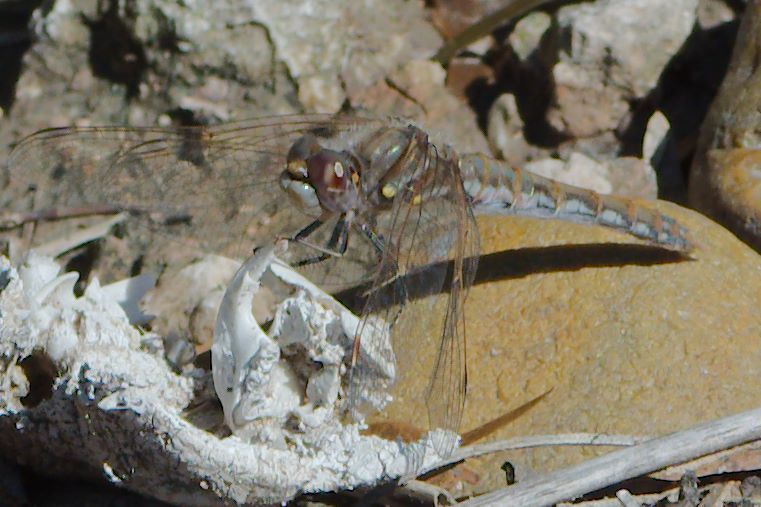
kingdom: Animalia
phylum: Arthropoda
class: Insecta
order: Odonata
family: Libellulidae
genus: Sympetrum
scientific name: Sympetrum corruptum
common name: Variegated meadowhawk
